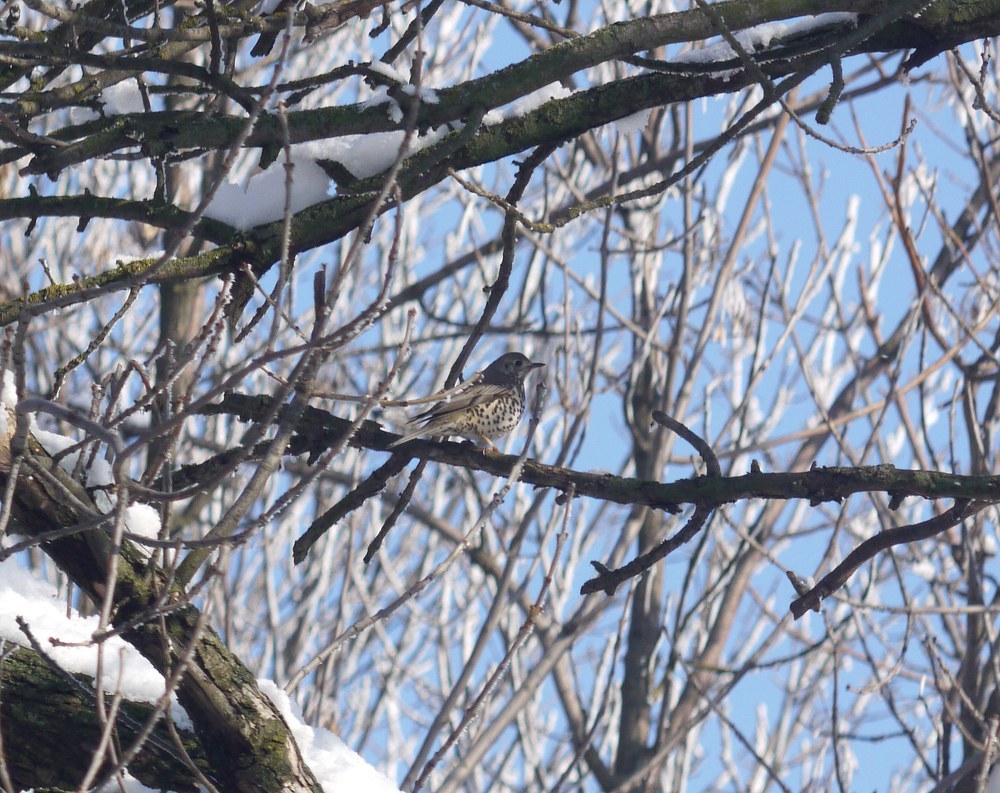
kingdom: Animalia
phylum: Chordata
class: Aves
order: Passeriformes
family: Turdidae
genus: Turdus
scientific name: Turdus viscivorus
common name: Mistle thrush
